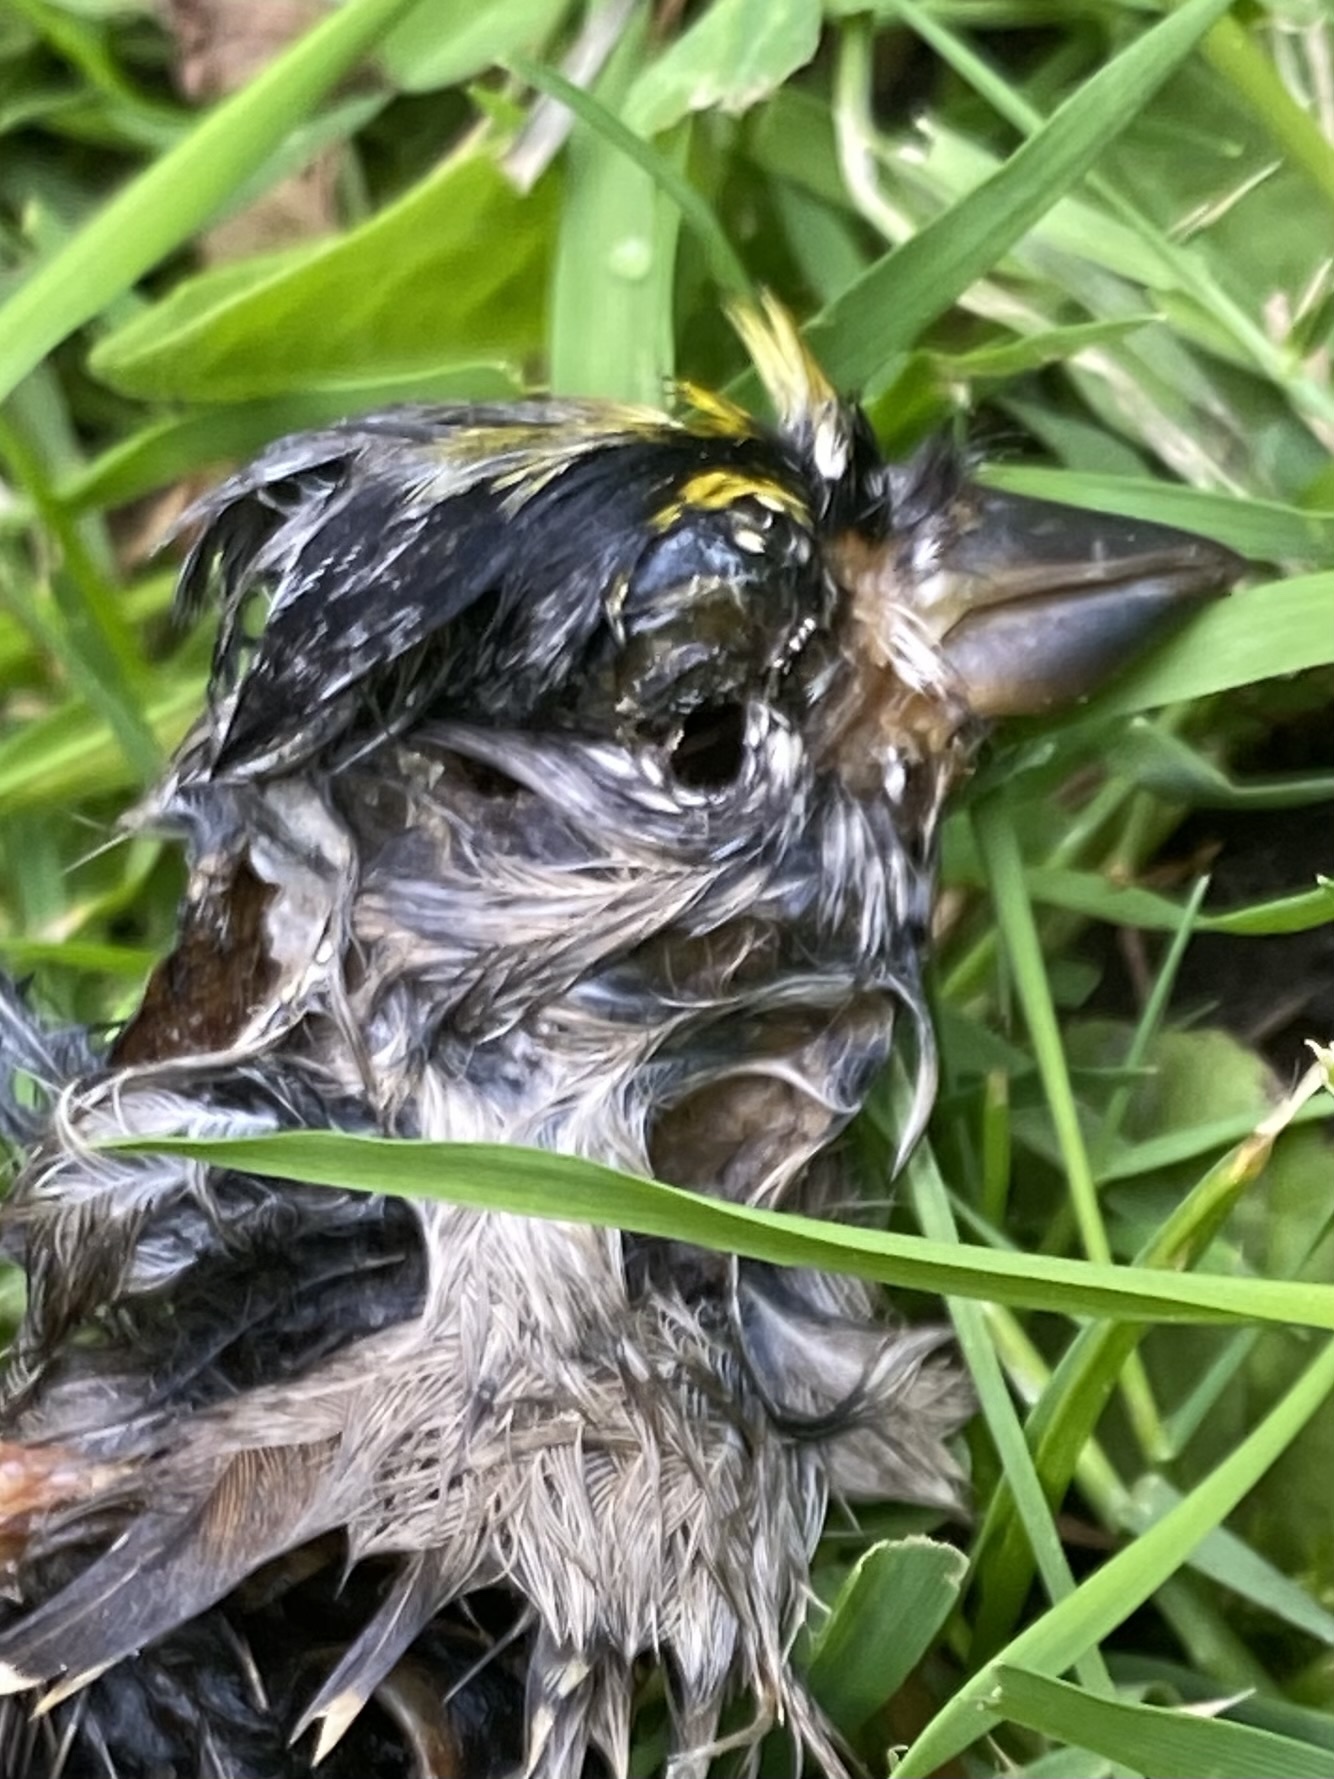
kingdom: Animalia
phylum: Chordata
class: Aves
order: Passeriformes
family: Passerellidae
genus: Zonotrichia
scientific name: Zonotrichia atricapilla
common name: Golden-crowned sparrow
